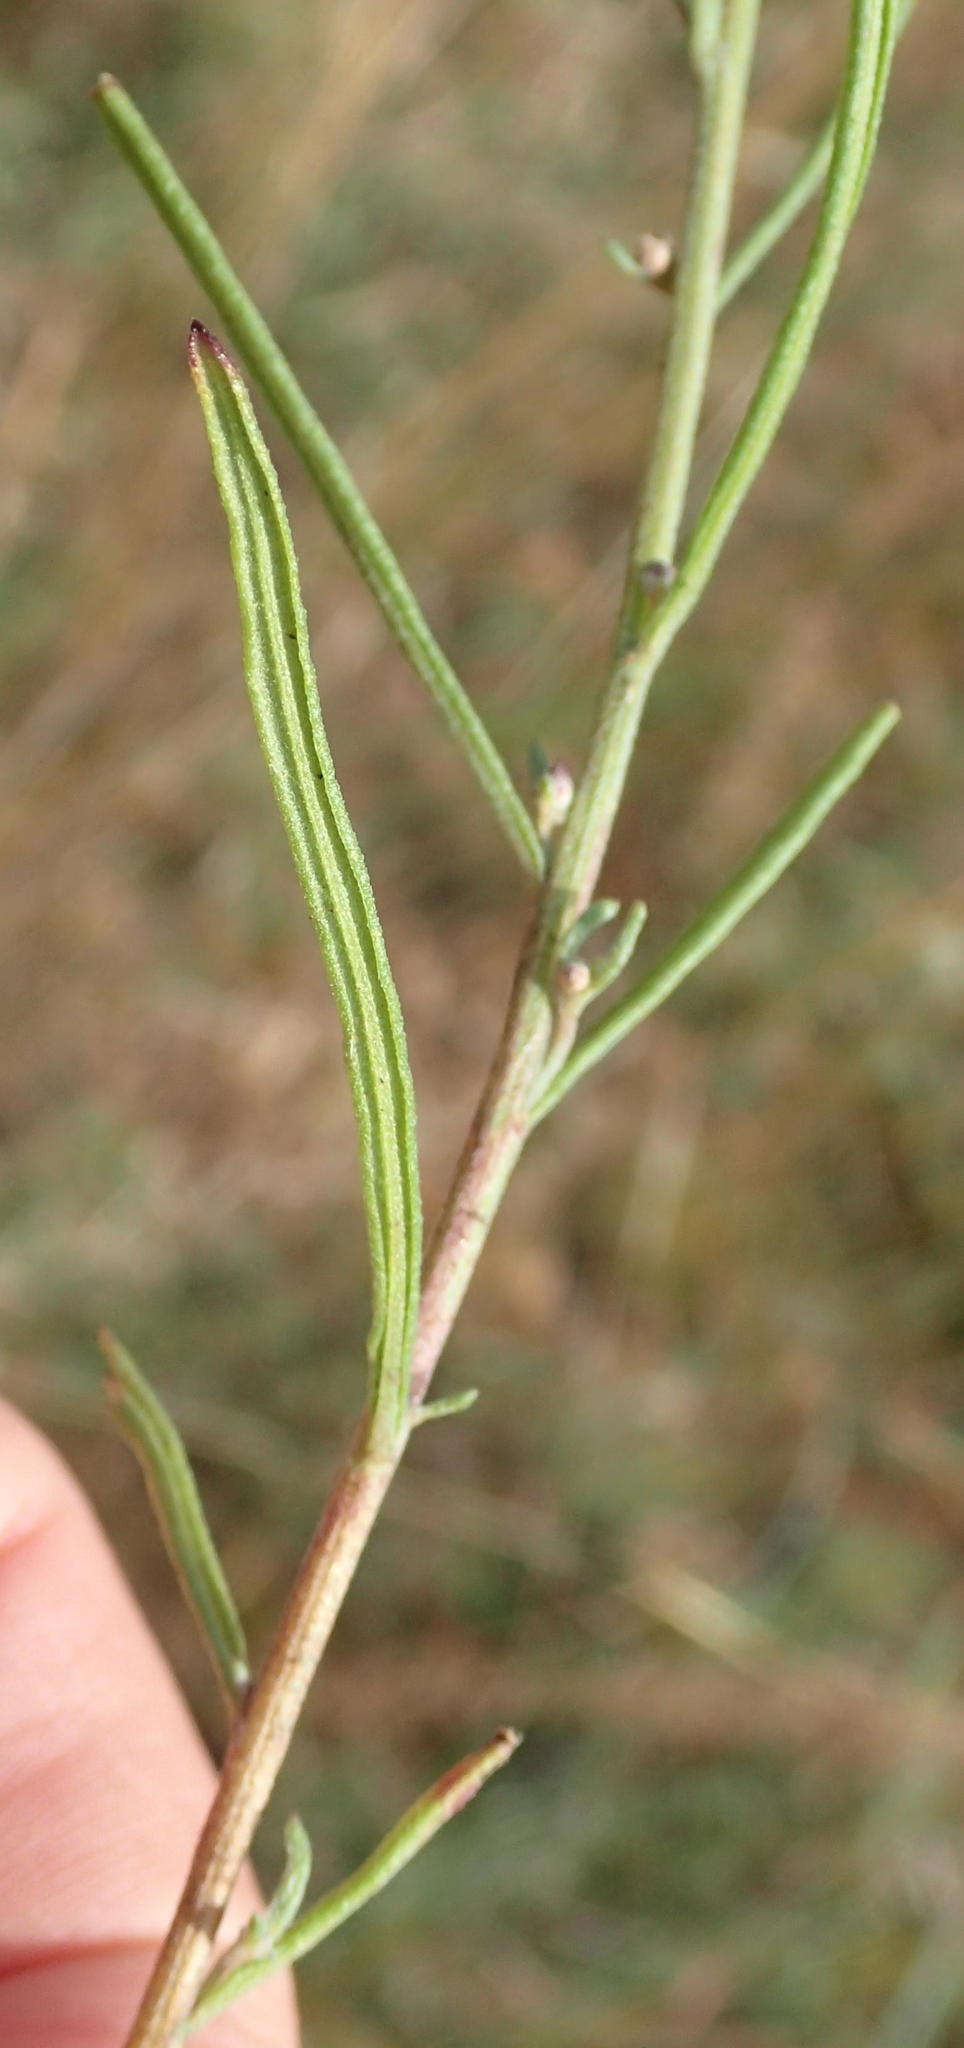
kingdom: Plantae
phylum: Tracheophyta
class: Magnoliopsida
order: Asterales
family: Asteraceae
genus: Crystallopollen
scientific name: Crystallopollen angustifolium
